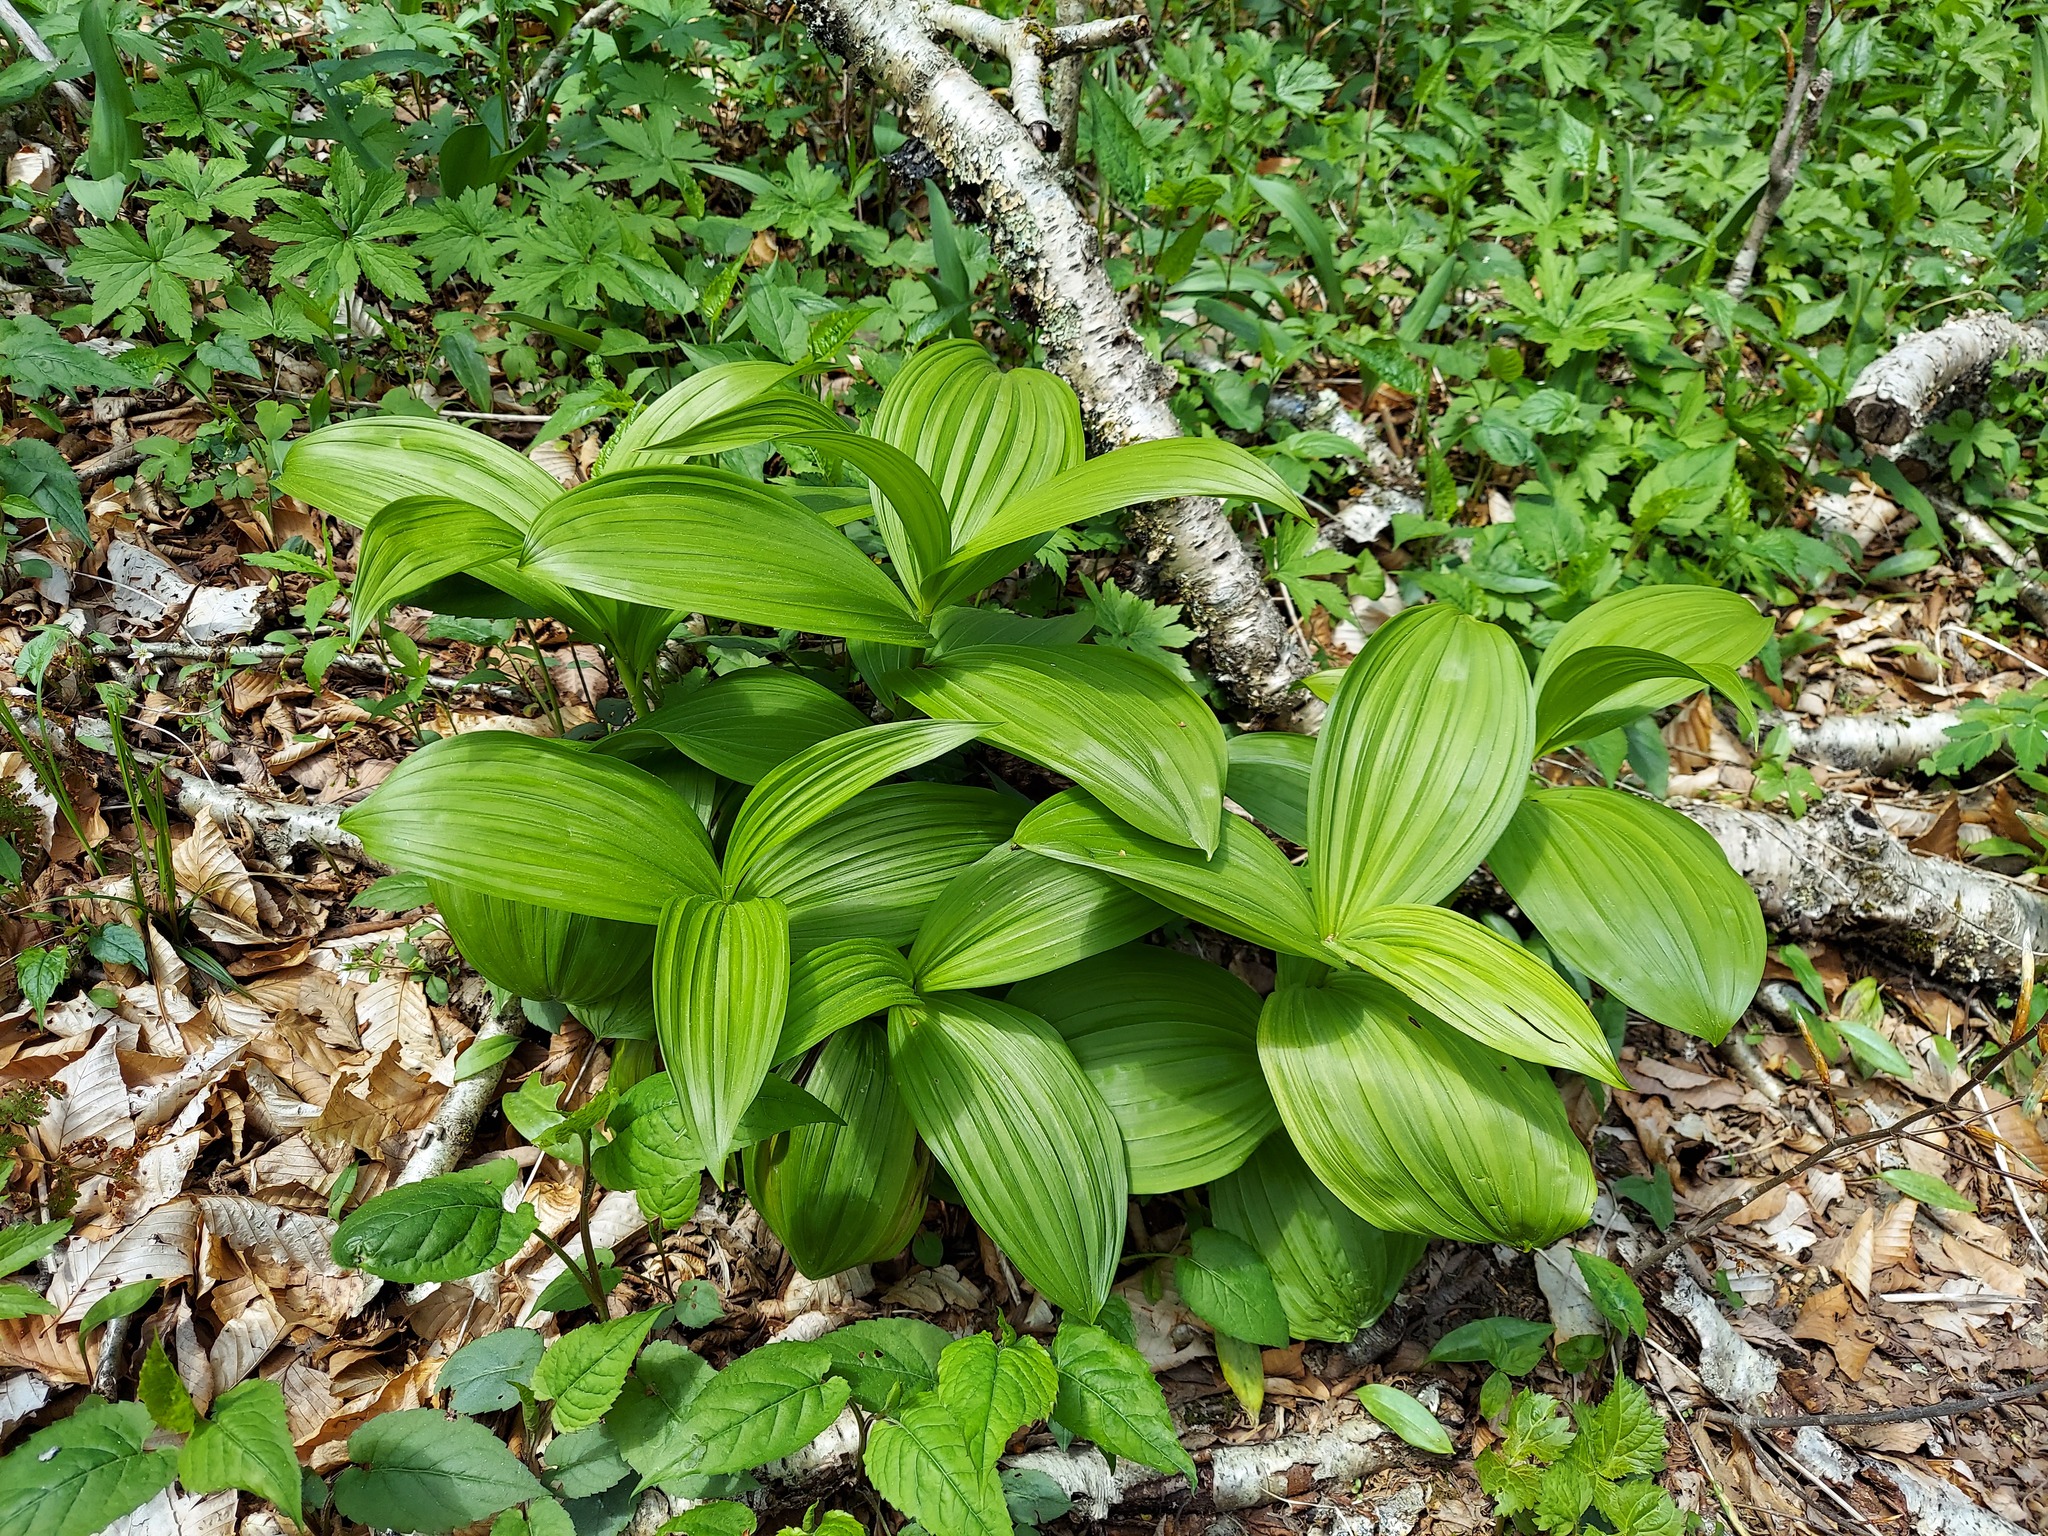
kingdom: Plantae
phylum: Tracheophyta
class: Liliopsida
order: Liliales
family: Melanthiaceae
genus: Veratrum
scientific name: Veratrum viride
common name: American false hellebore
